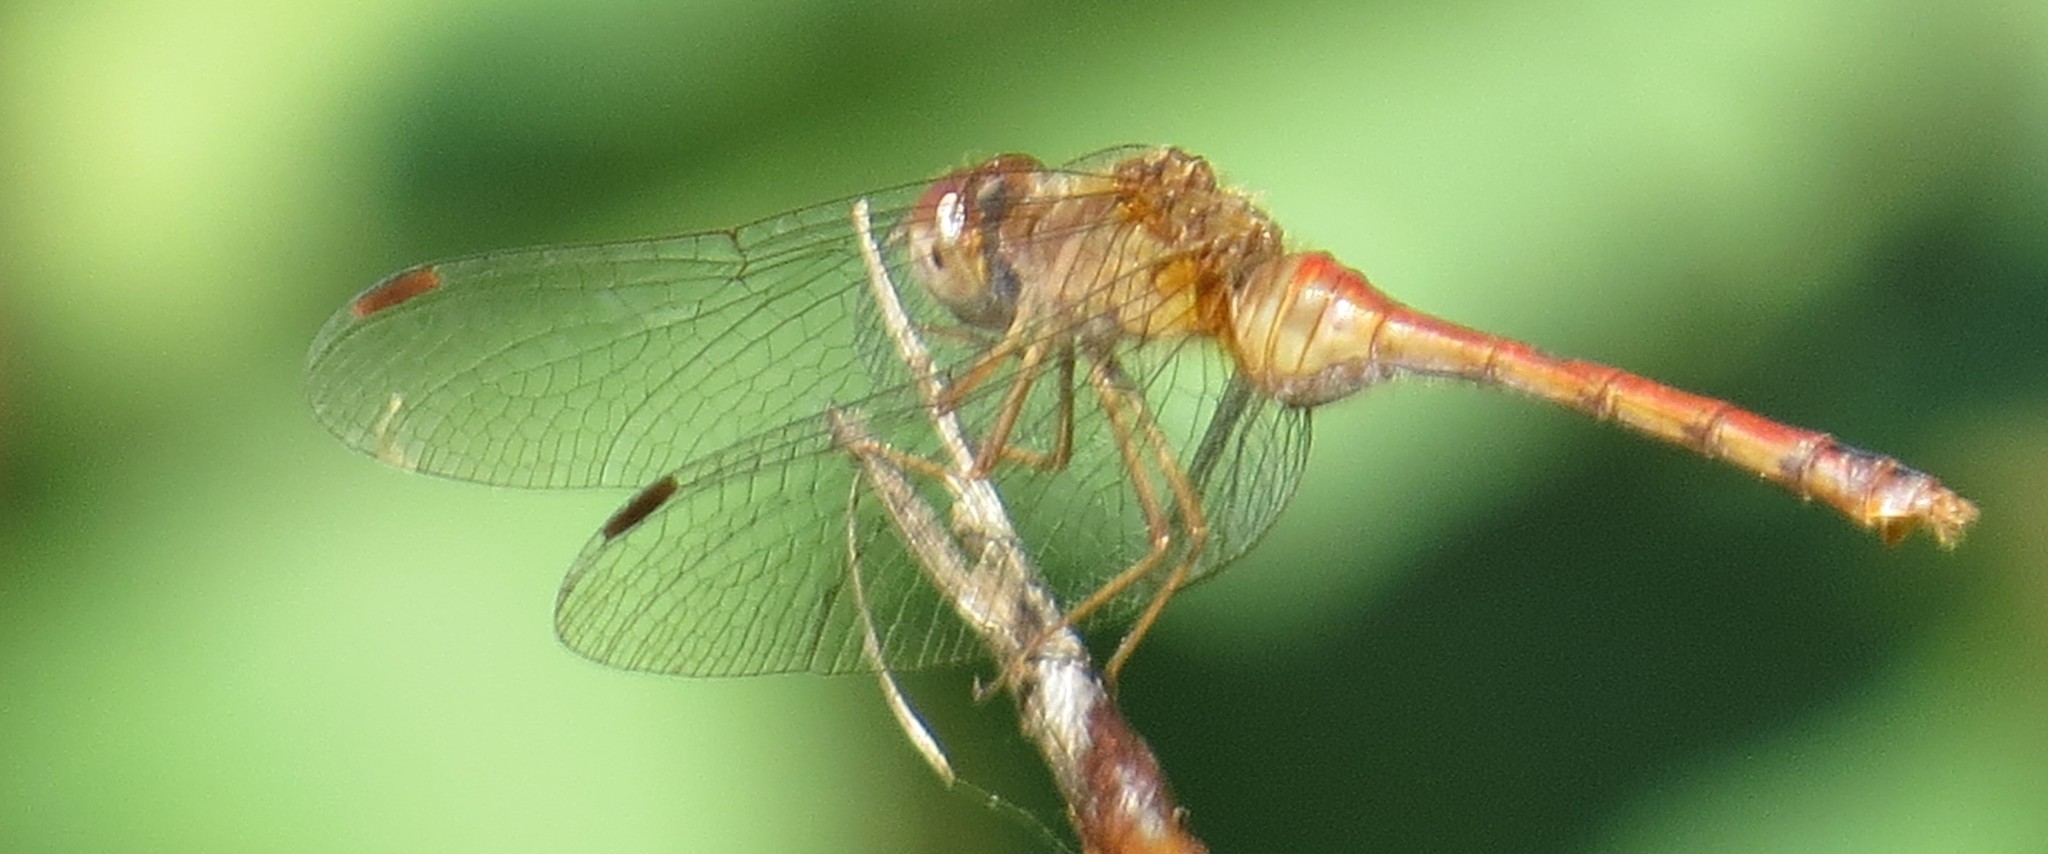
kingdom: Animalia
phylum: Arthropoda
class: Insecta
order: Odonata
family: Libellulidae
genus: Sympetrum
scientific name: Sympetrum vicinum
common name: Autumn meadowhawk
